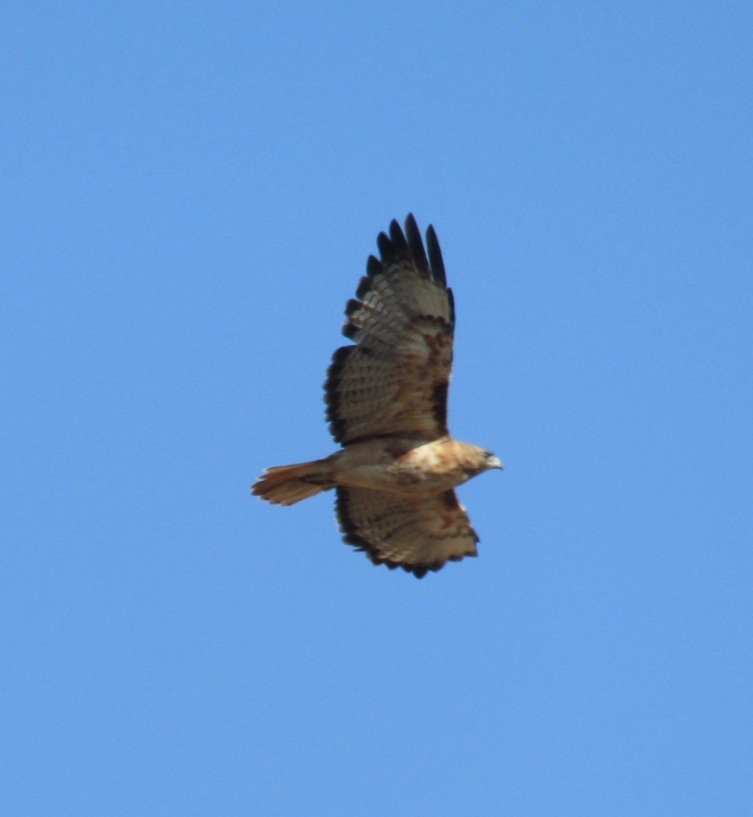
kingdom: Animalia
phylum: Chordata
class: Aves
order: Accipitriformes
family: Accipitridae
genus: Buteo
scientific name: Buteo jamaicensis
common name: Red-tailed hawk
